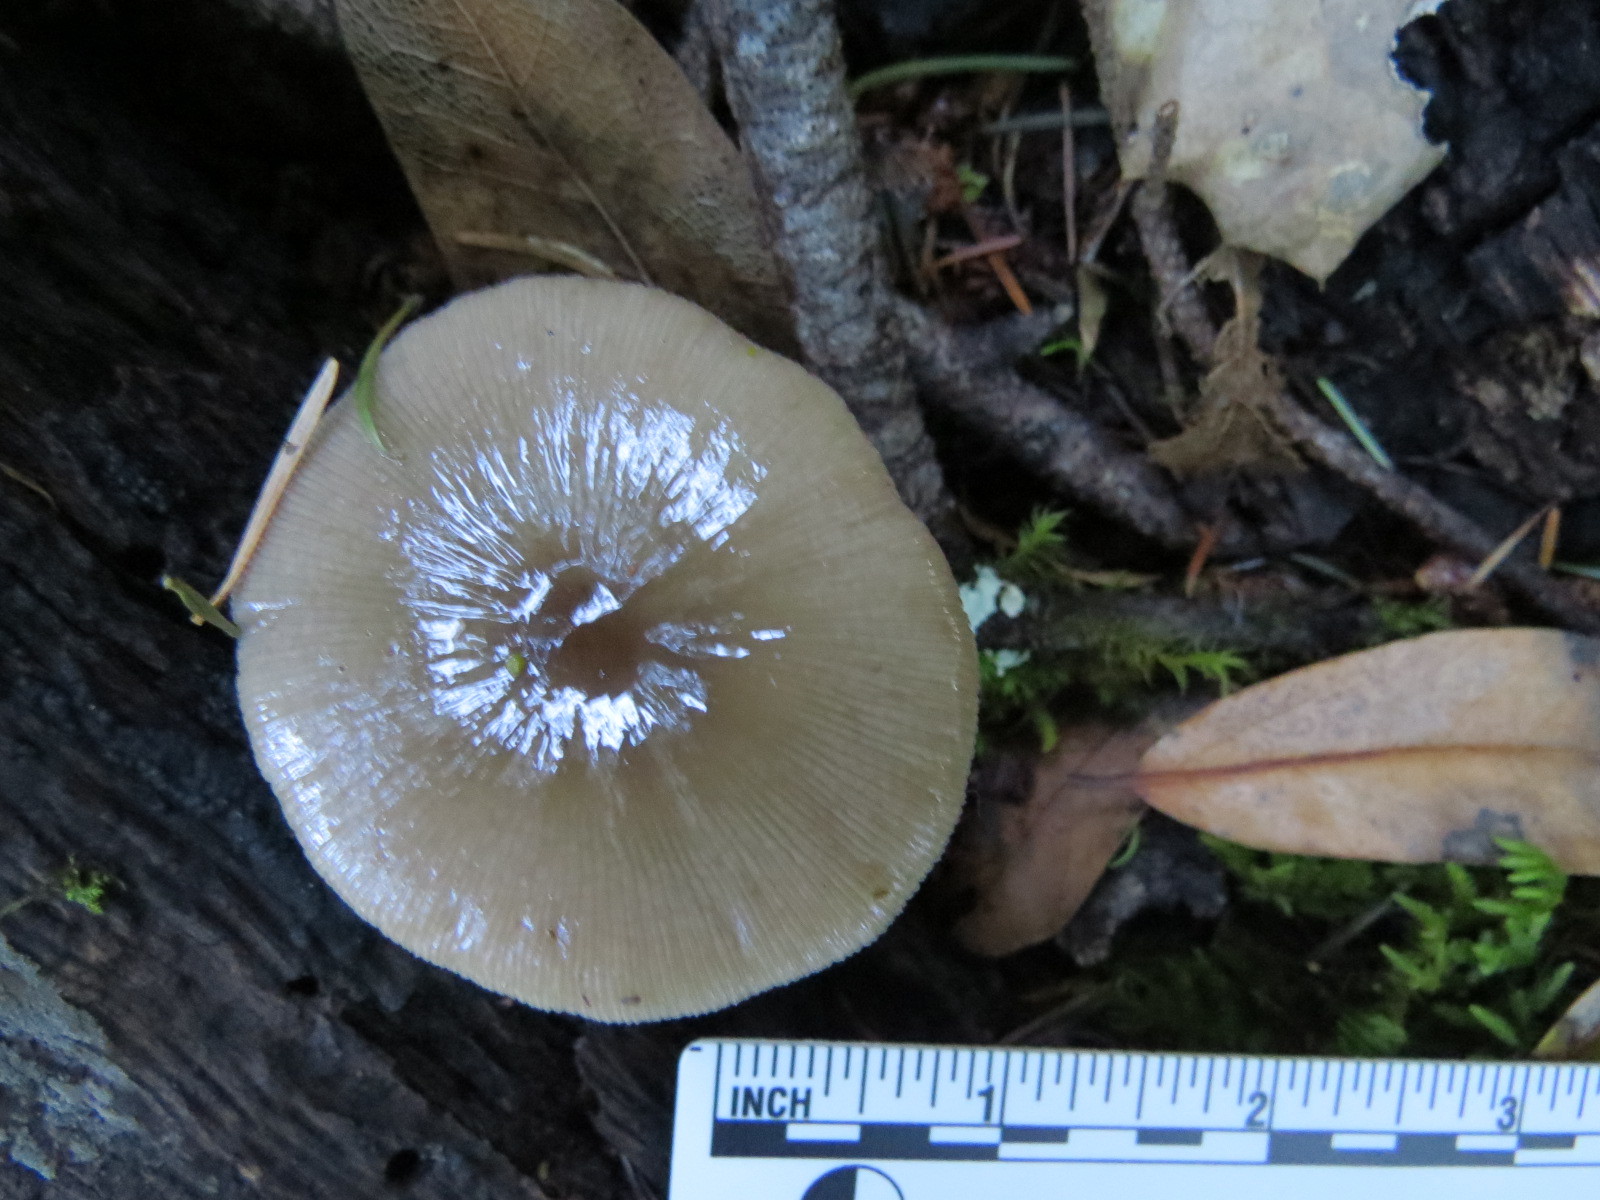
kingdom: Fungi
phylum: Basidiomycota
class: Agaricomycetes
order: Agaricales
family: Bolbitiaceae
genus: Bolbitius
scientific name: Bolbitius reticulatus
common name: Netted fieldcap
